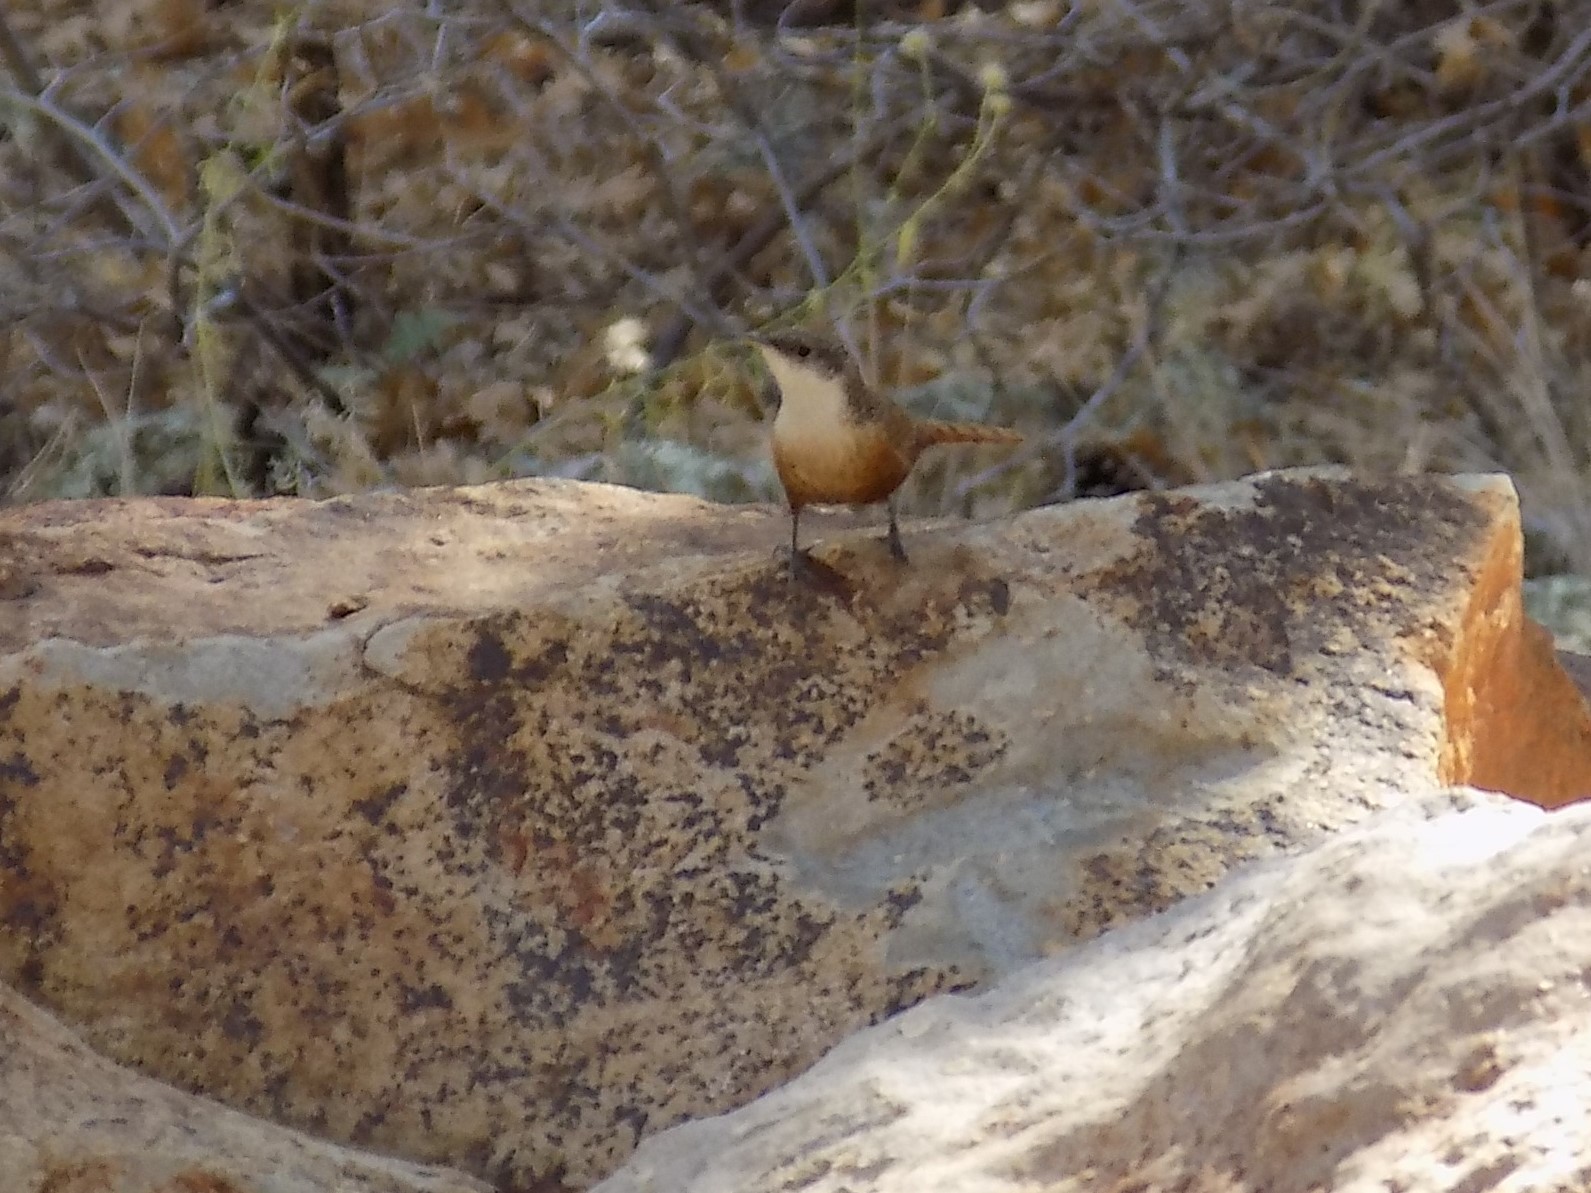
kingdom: Animalia
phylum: Chordata
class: Aves
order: Passeriformes
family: Troglodytidae
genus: Catherpes
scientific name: Catherpes mexicanus
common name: Canyon wren
